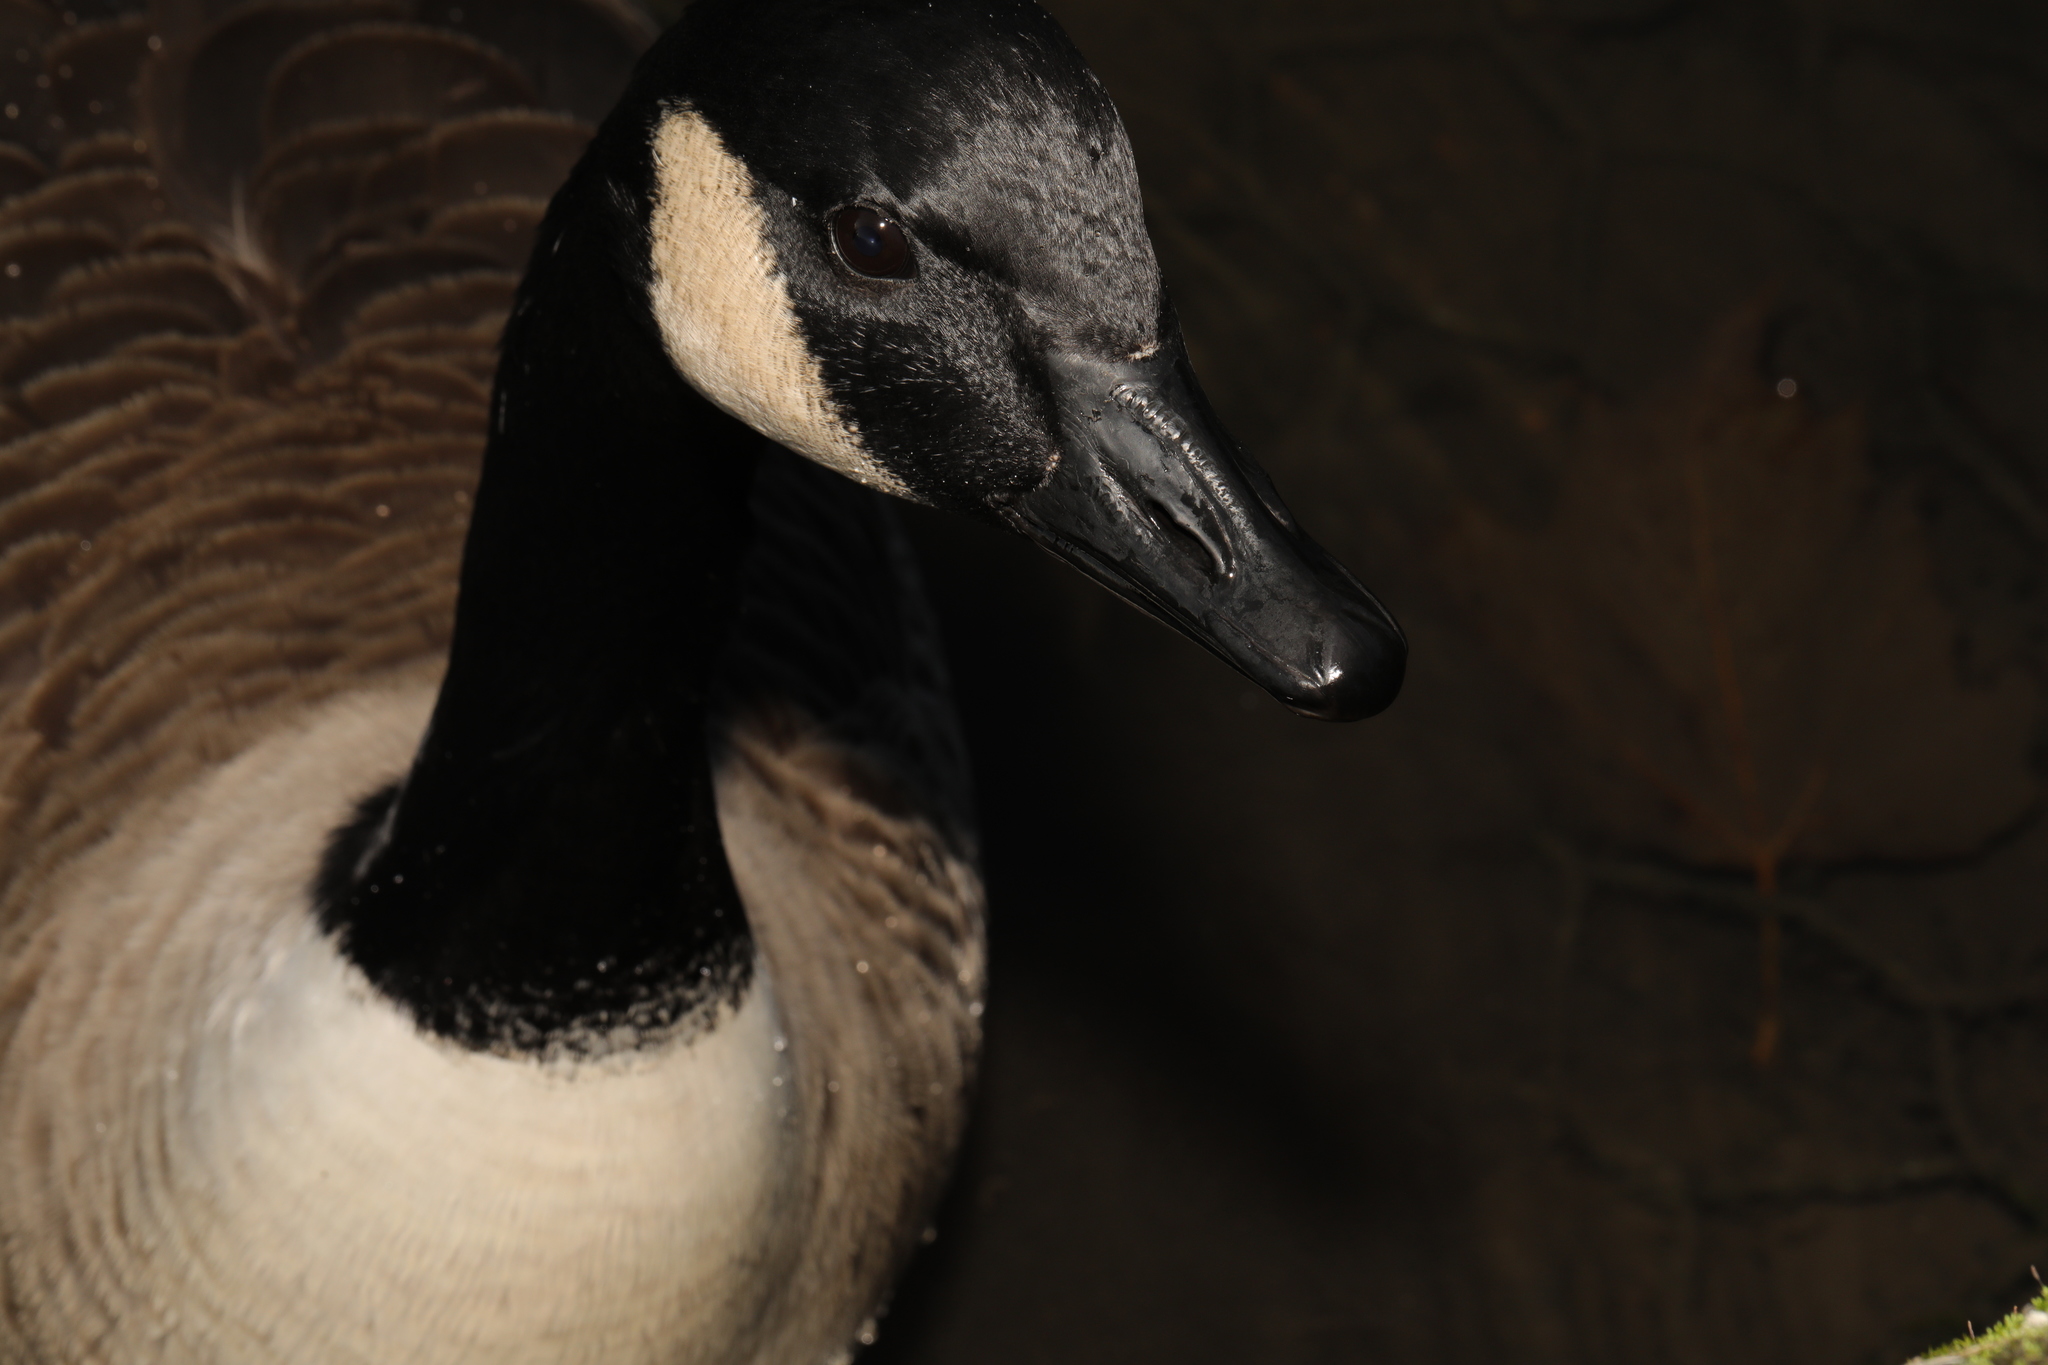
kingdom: Animalia
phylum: Chordata
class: Aves
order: Anseriformes
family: Anatidae
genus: Branta
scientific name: Branta canadensis
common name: Canada goose
